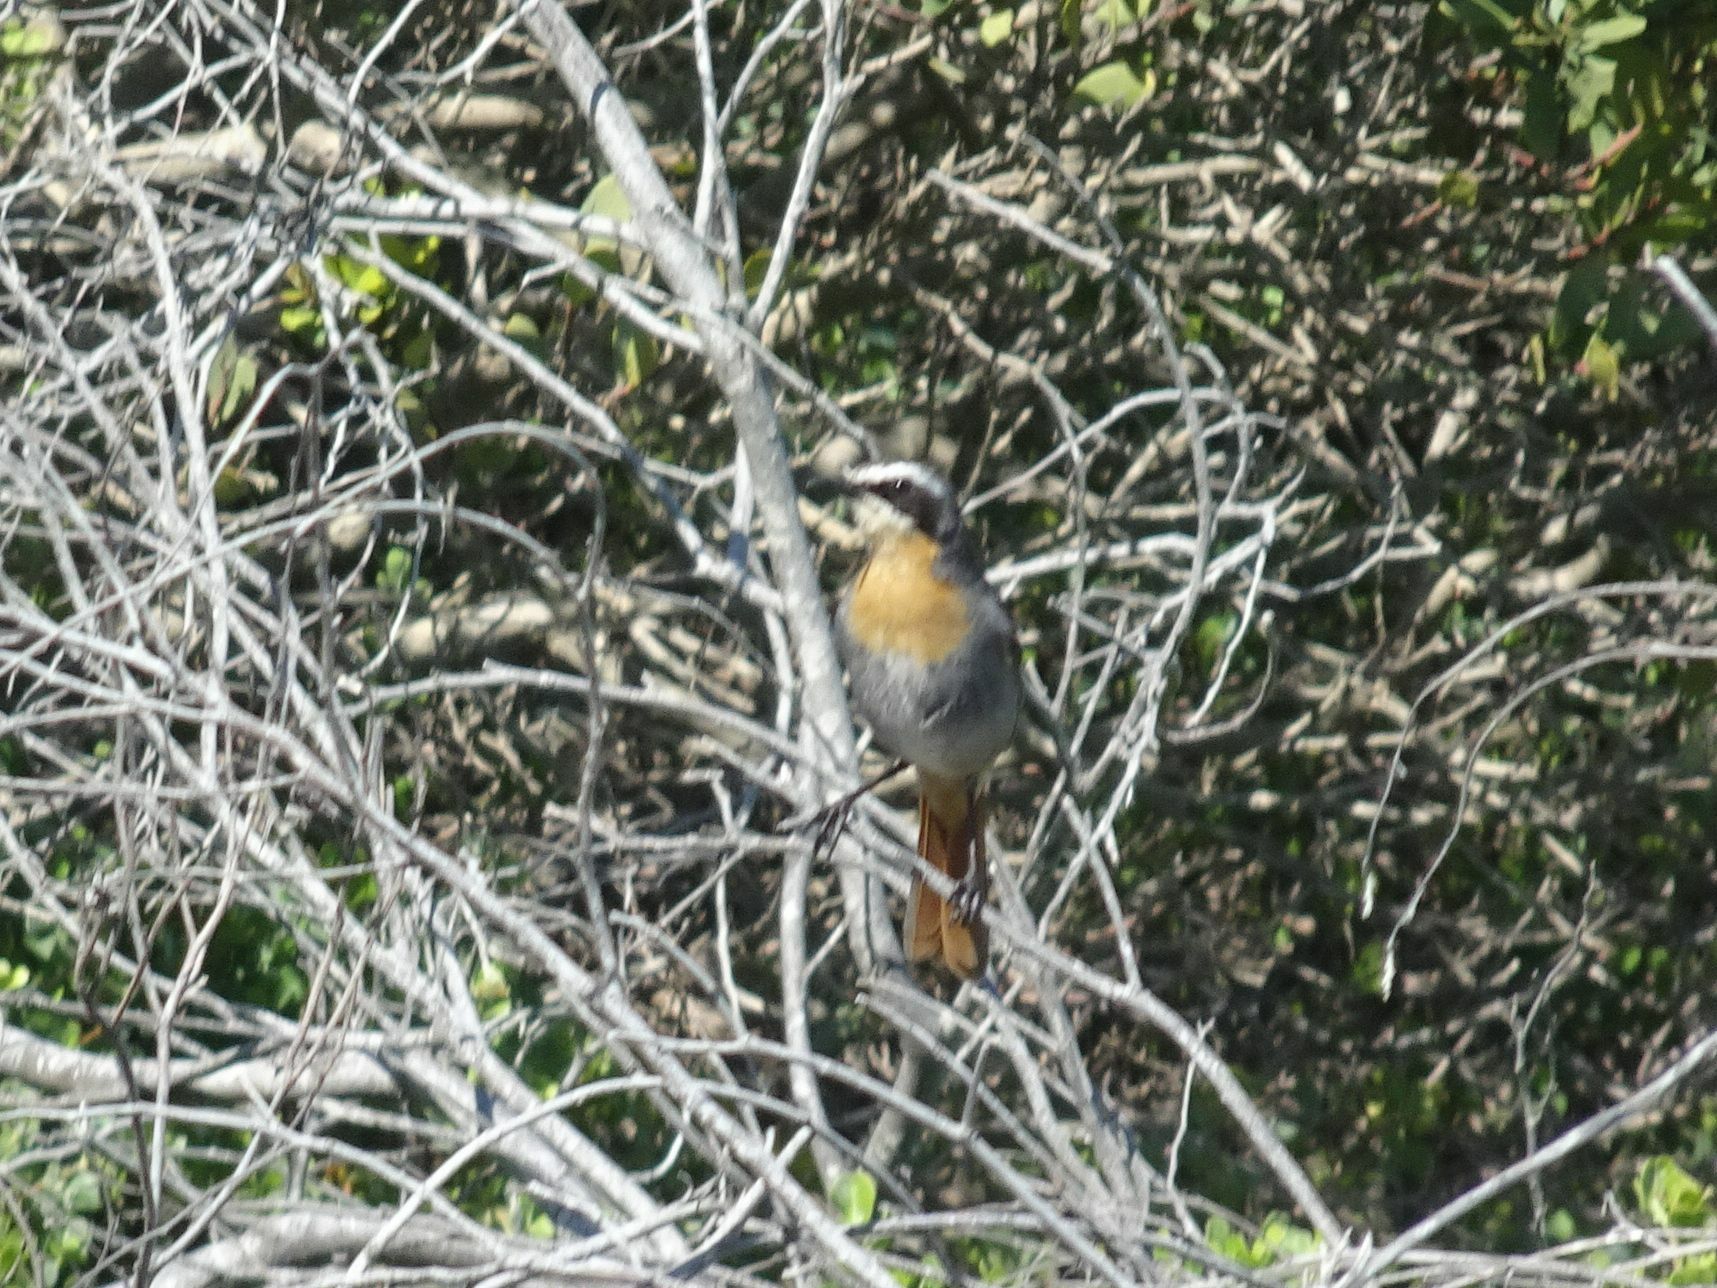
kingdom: Animalia
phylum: Chordata
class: Aves
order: Passeriformes
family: Muscicapidae
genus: Cossypha
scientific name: Cossypha caffra
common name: Cape robin-chat
